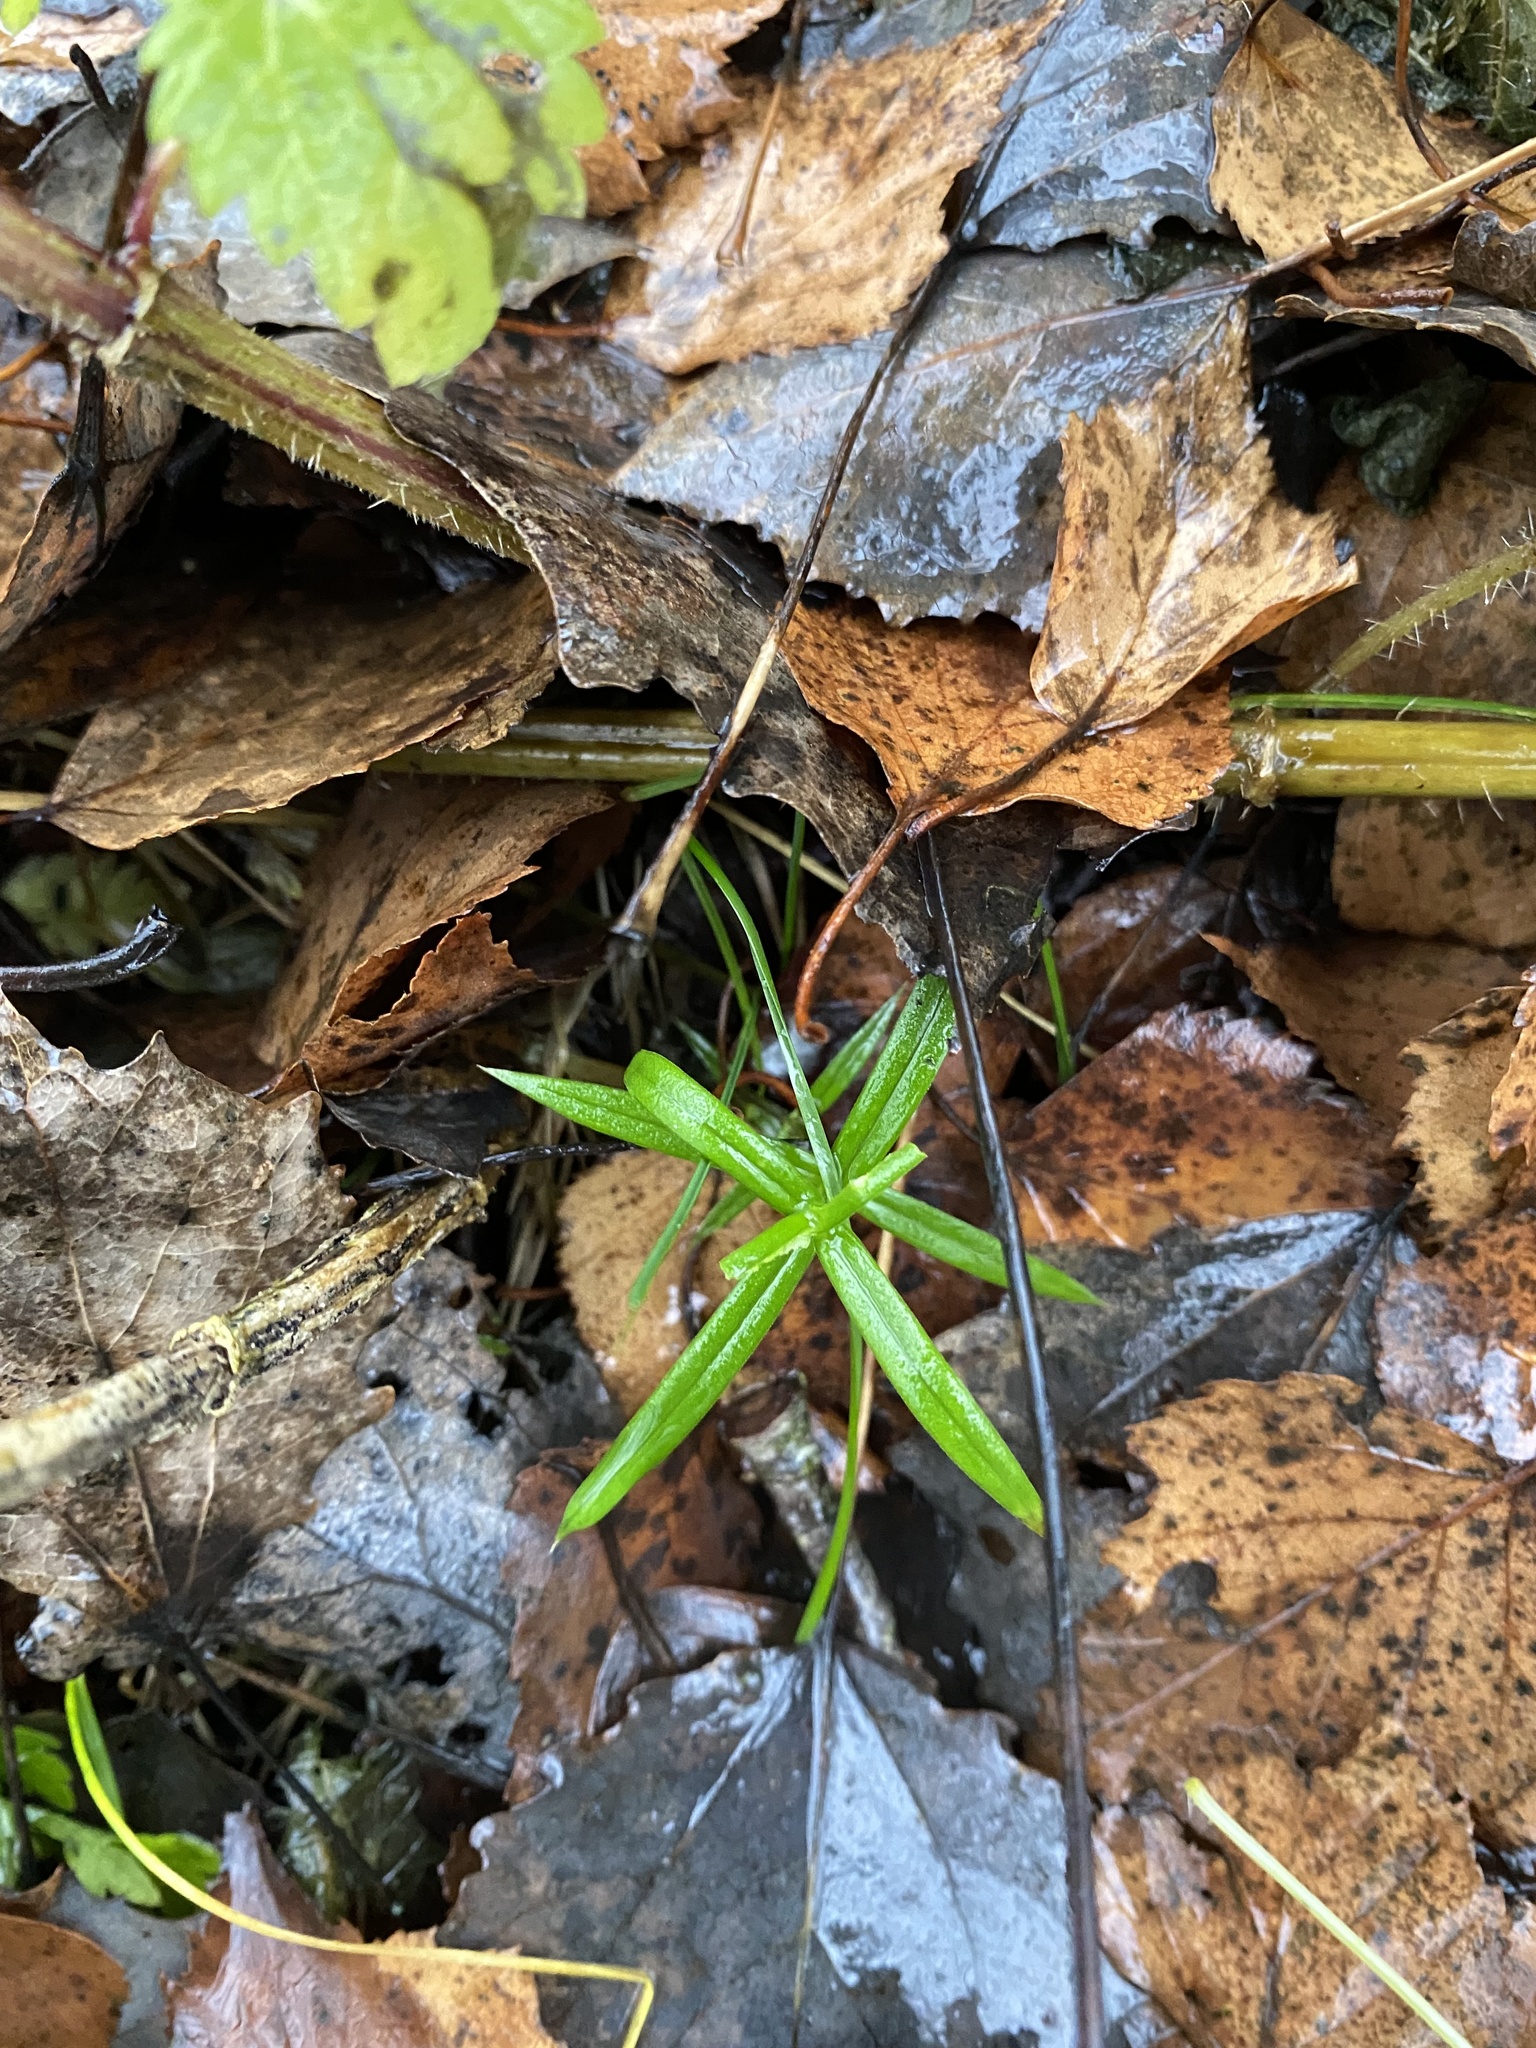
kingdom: Plantae
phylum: Tracheophyta
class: Magnoliopsida
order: Caryophyllales
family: Caryophyllaceae
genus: Rabelera
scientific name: Rabelera holostea
